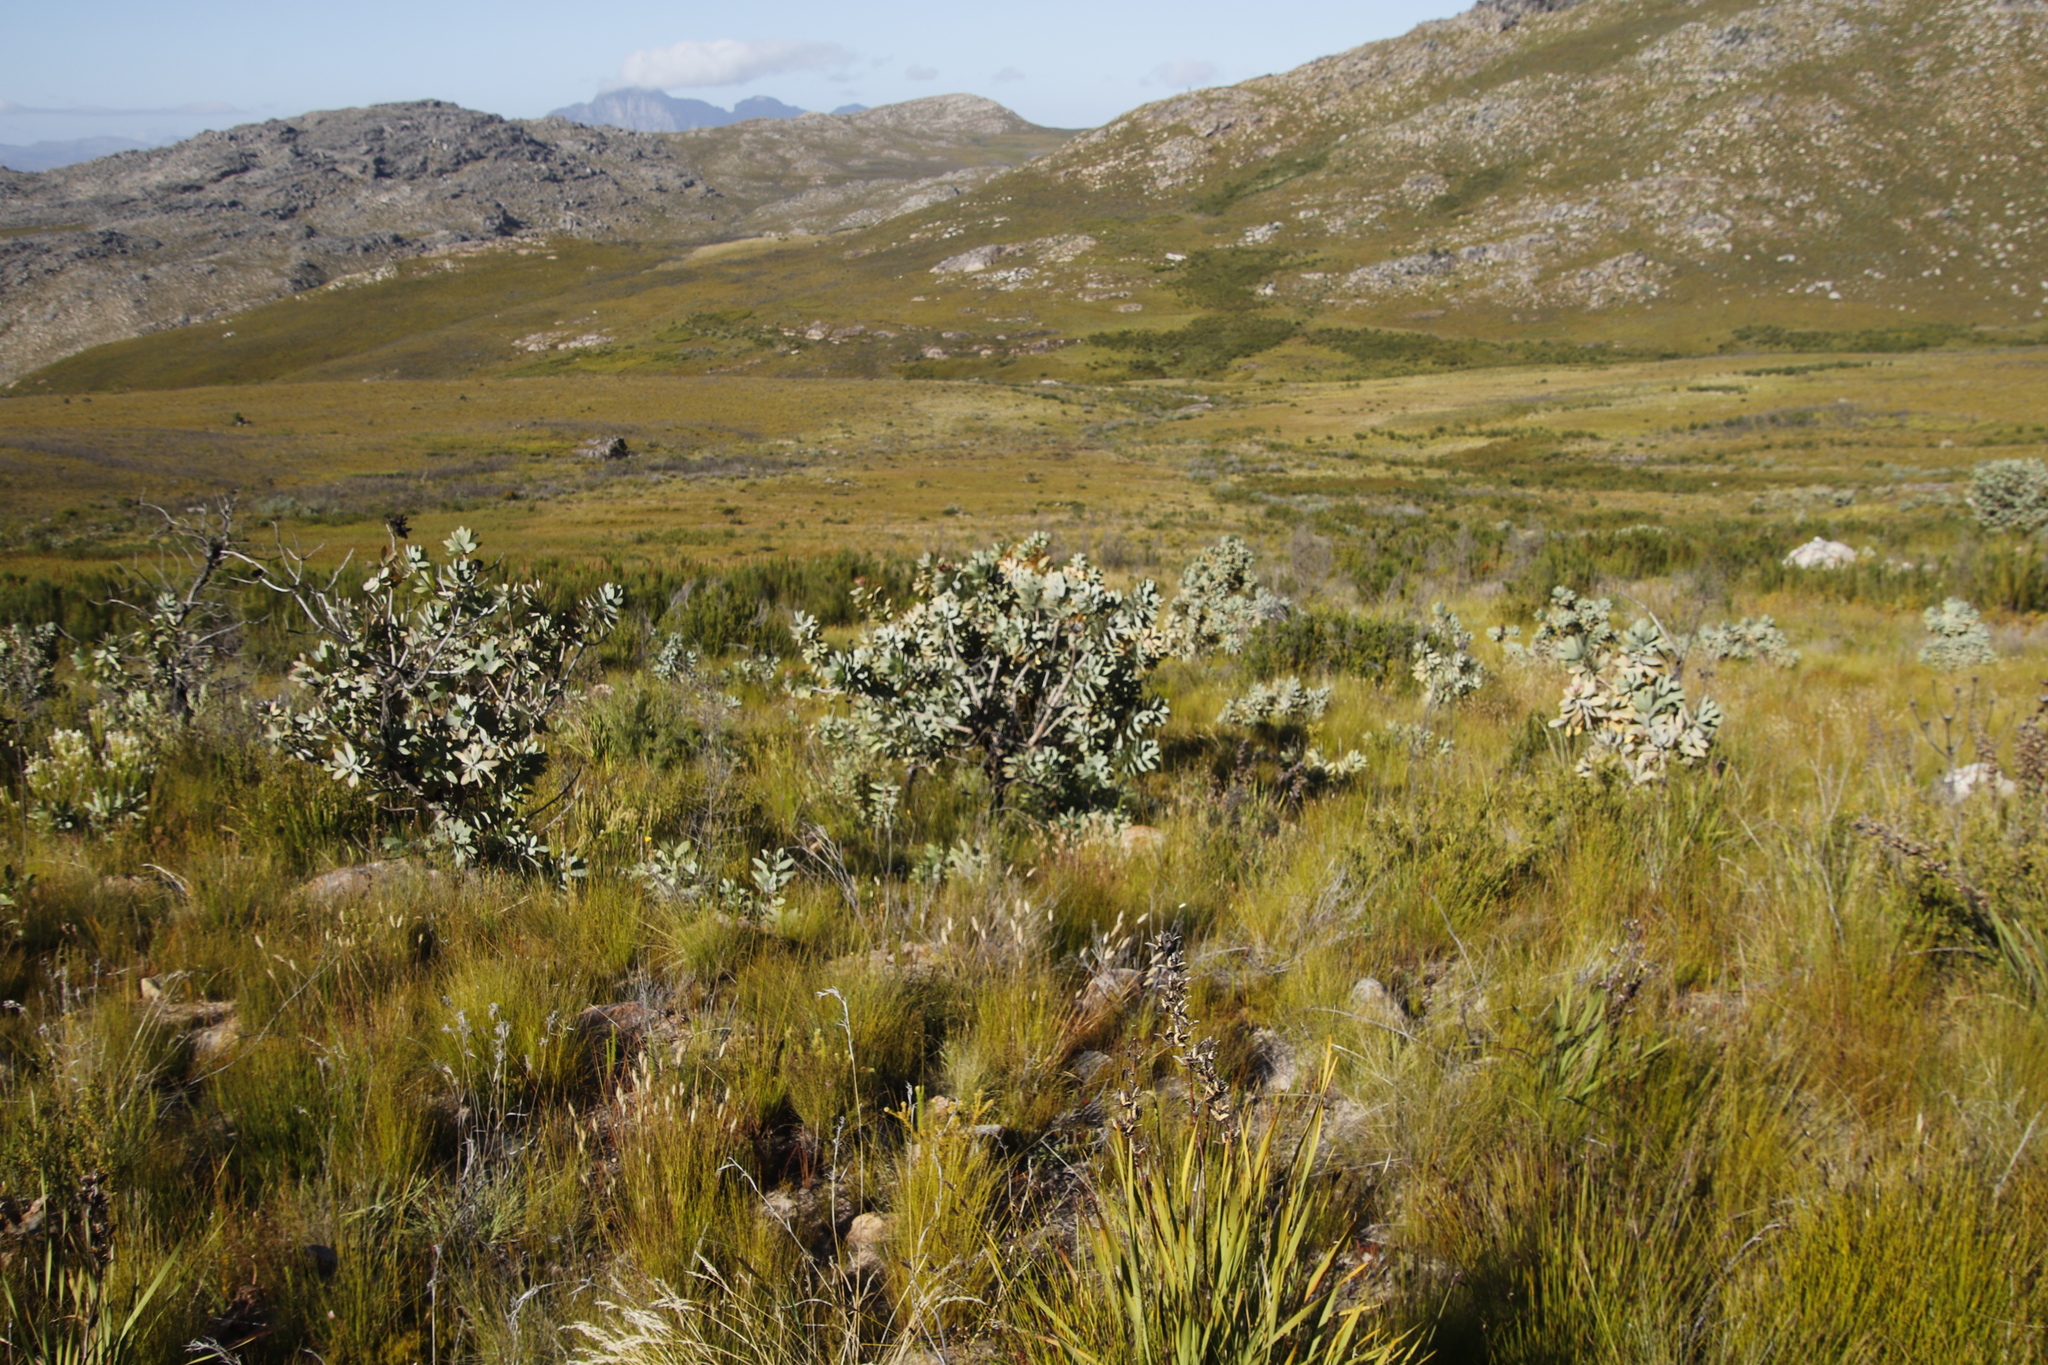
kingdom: Plantae
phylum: Tracheophyta
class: Magnoliopsida
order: Proteales
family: Proteaceae
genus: Protea
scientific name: Protea nitida
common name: Tree protea
